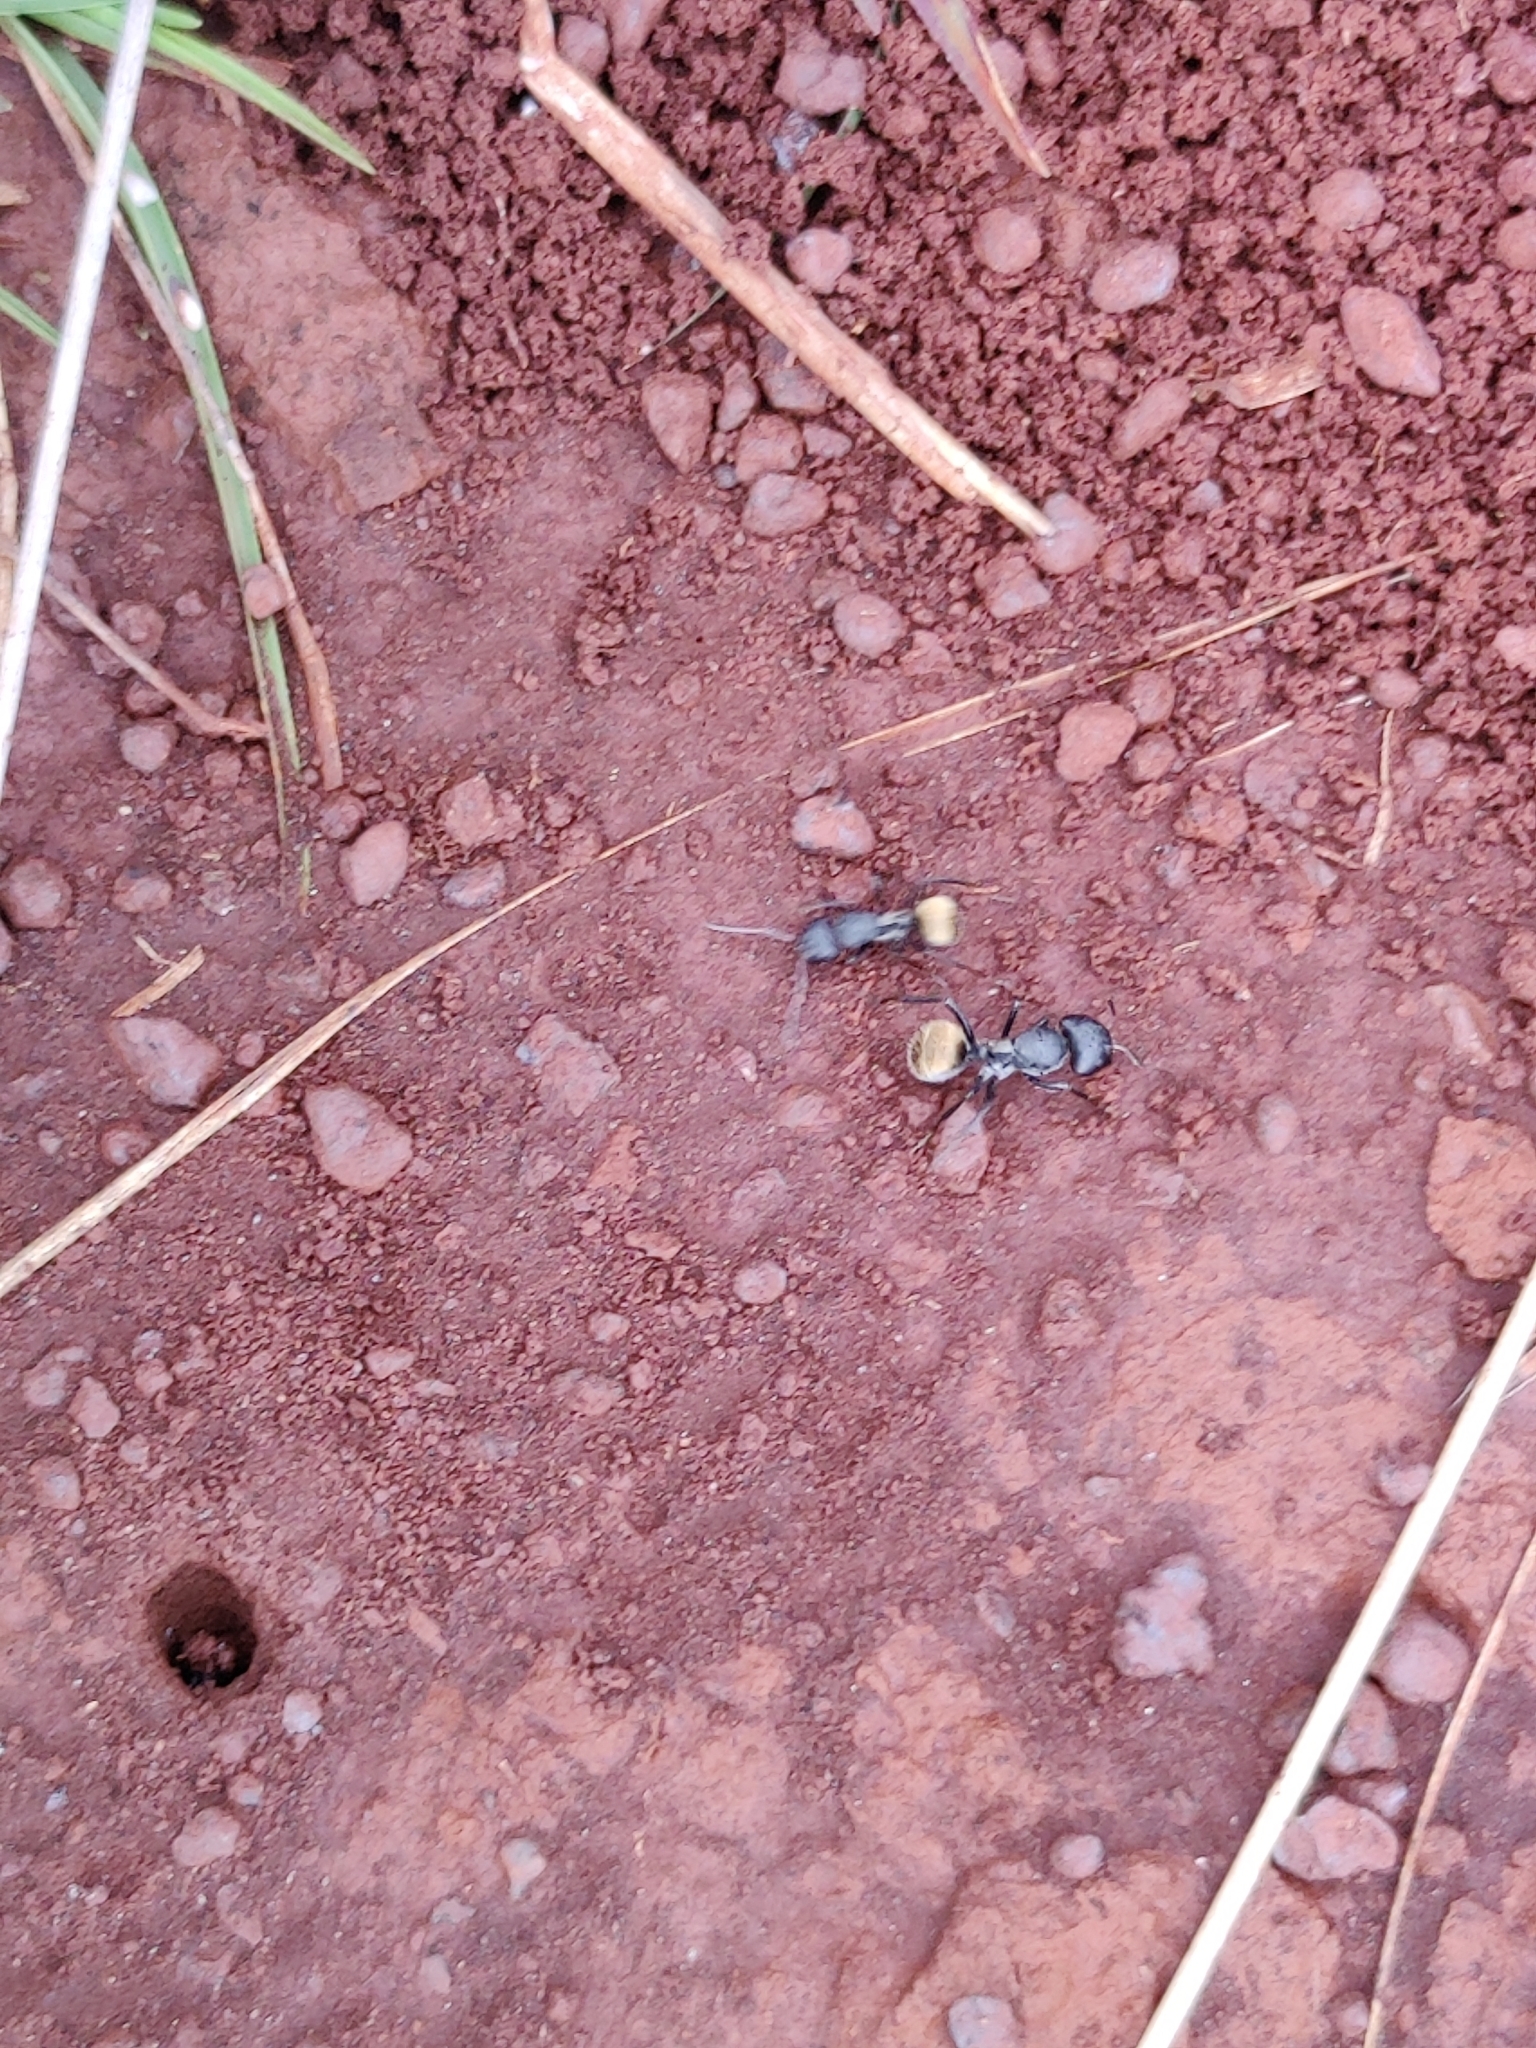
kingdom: Animalia
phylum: Arthropoda
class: Insecta
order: Hymenoptera
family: Formicidae
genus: Camponotus
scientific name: Camponotus sericeus
